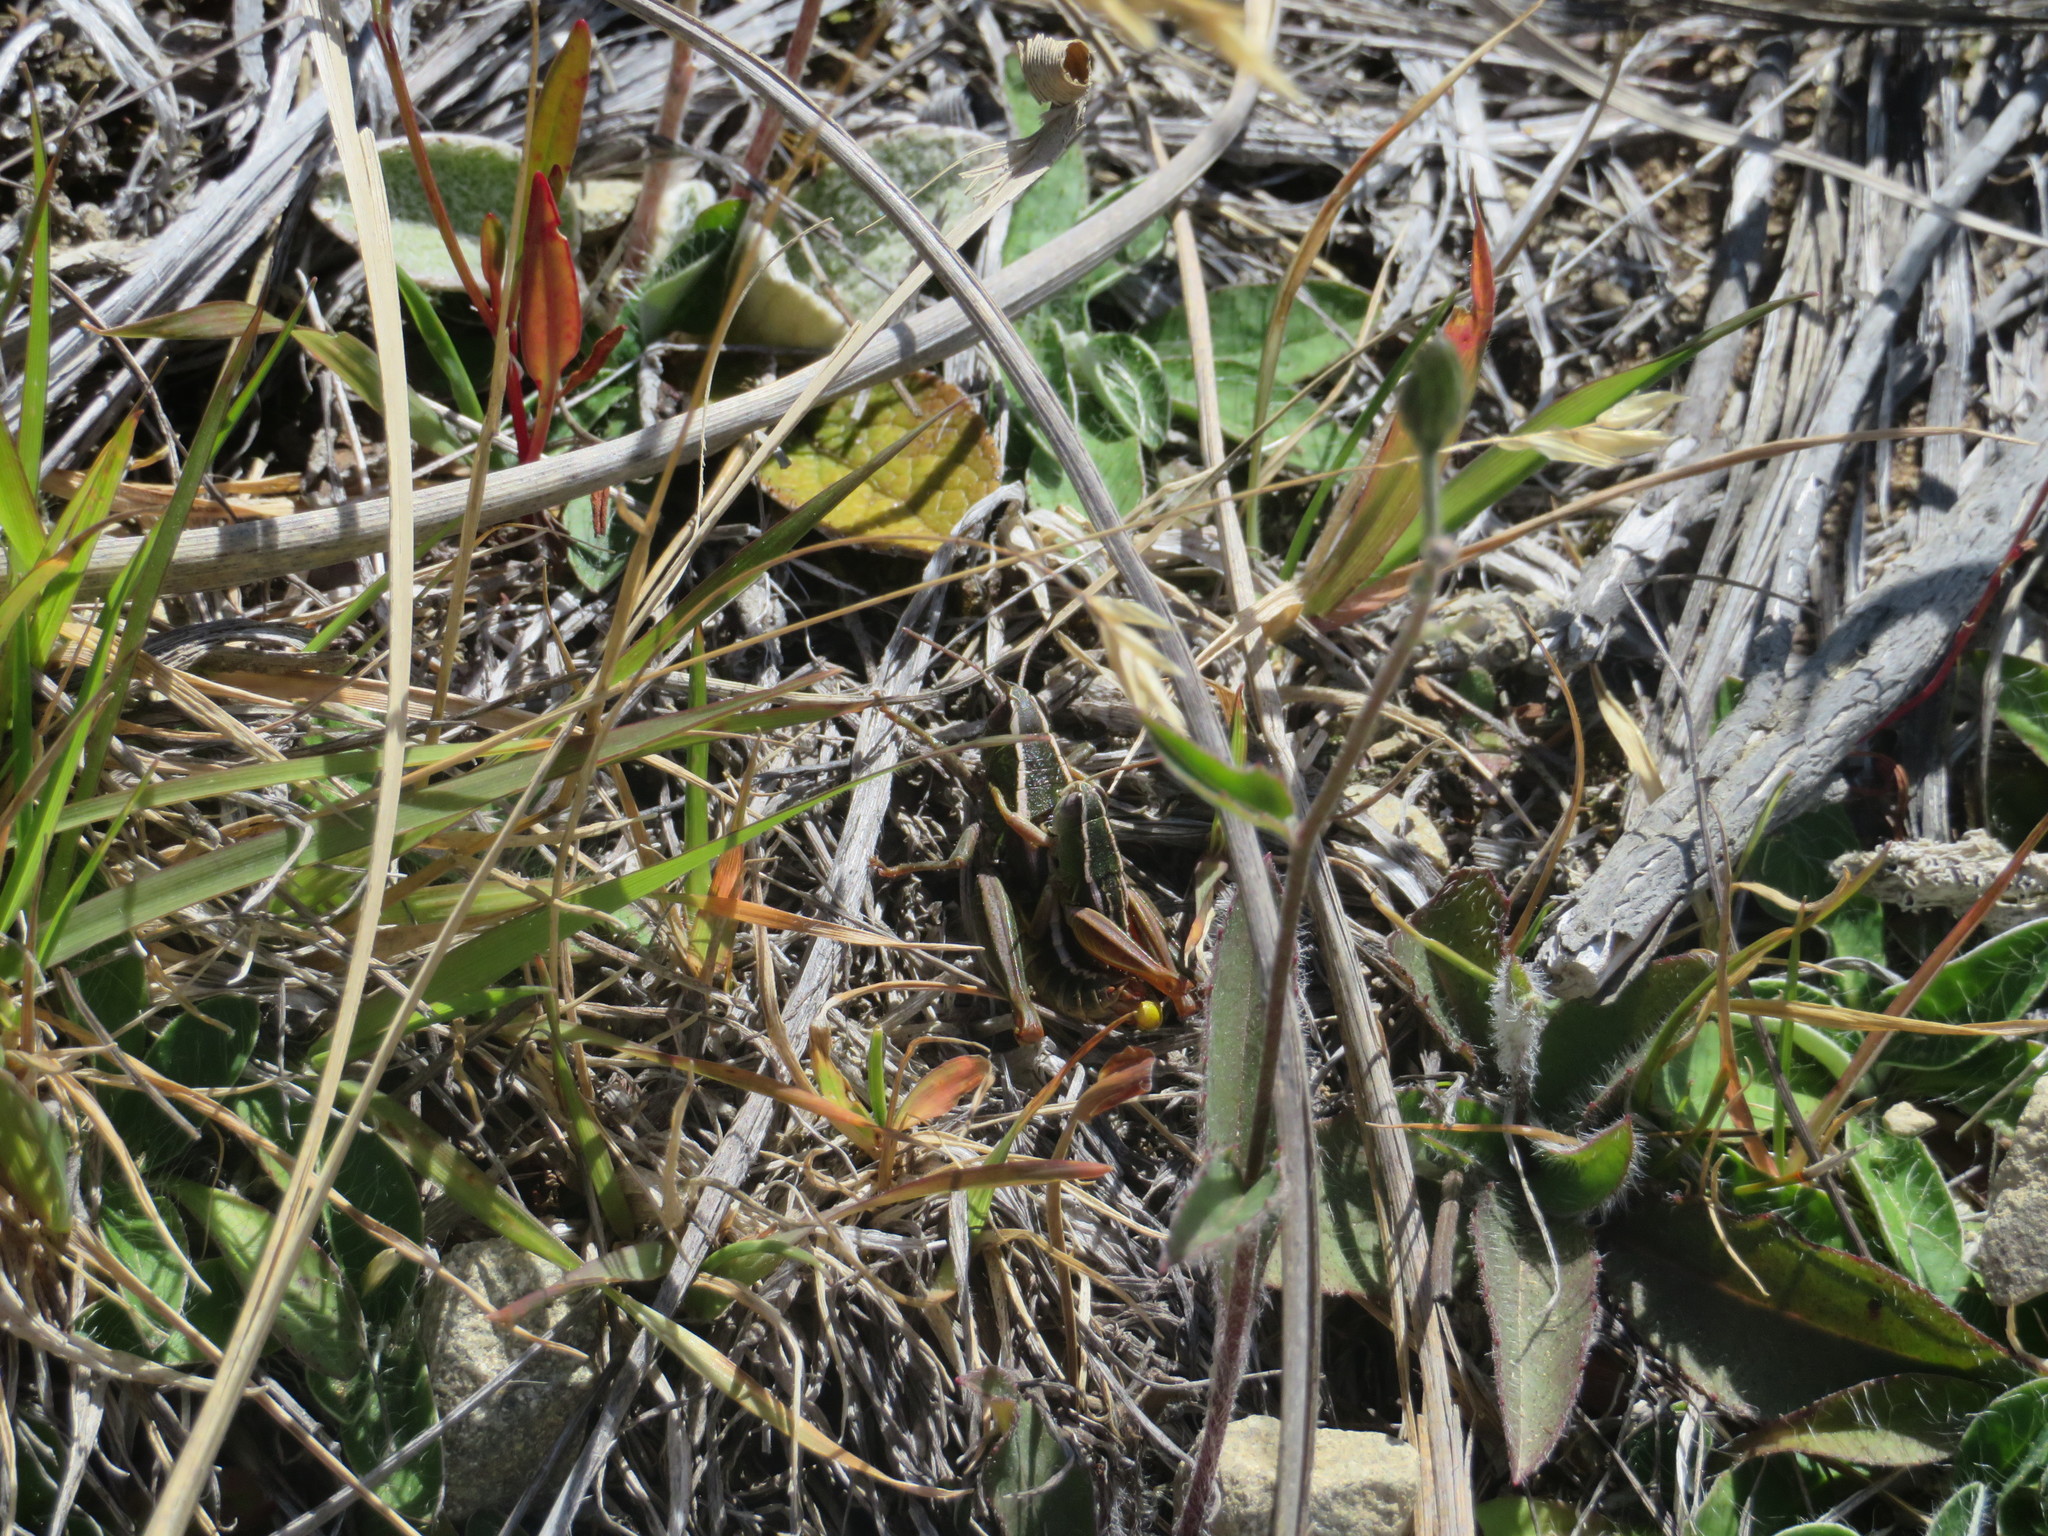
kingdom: Animalia
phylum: Arthropoda
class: Insecta
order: Orthoptera
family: Acrididae
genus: Sigaus
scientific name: Sigaus
